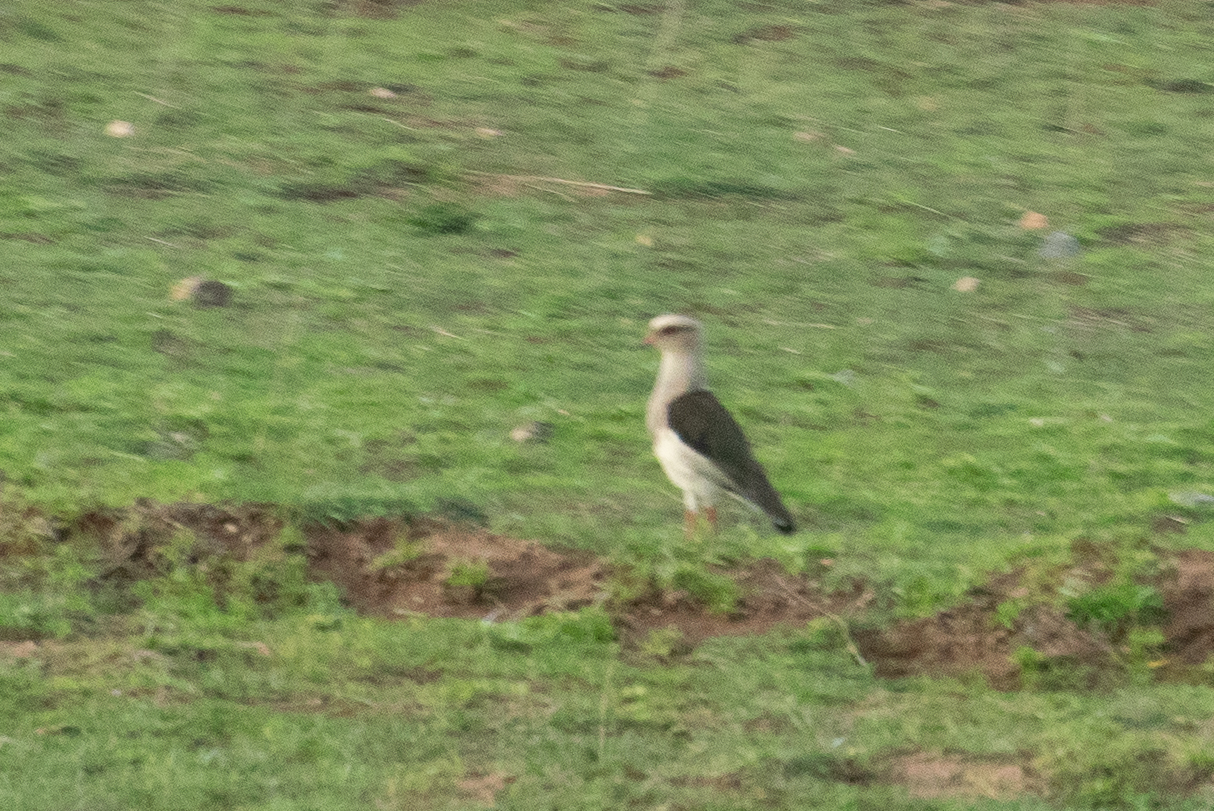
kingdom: Animalia
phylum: Chordata
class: Aves
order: Charadriiformes
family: Charadriidae
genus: Vanellus
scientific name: Vanellus resplendens
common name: Andean lapwing
